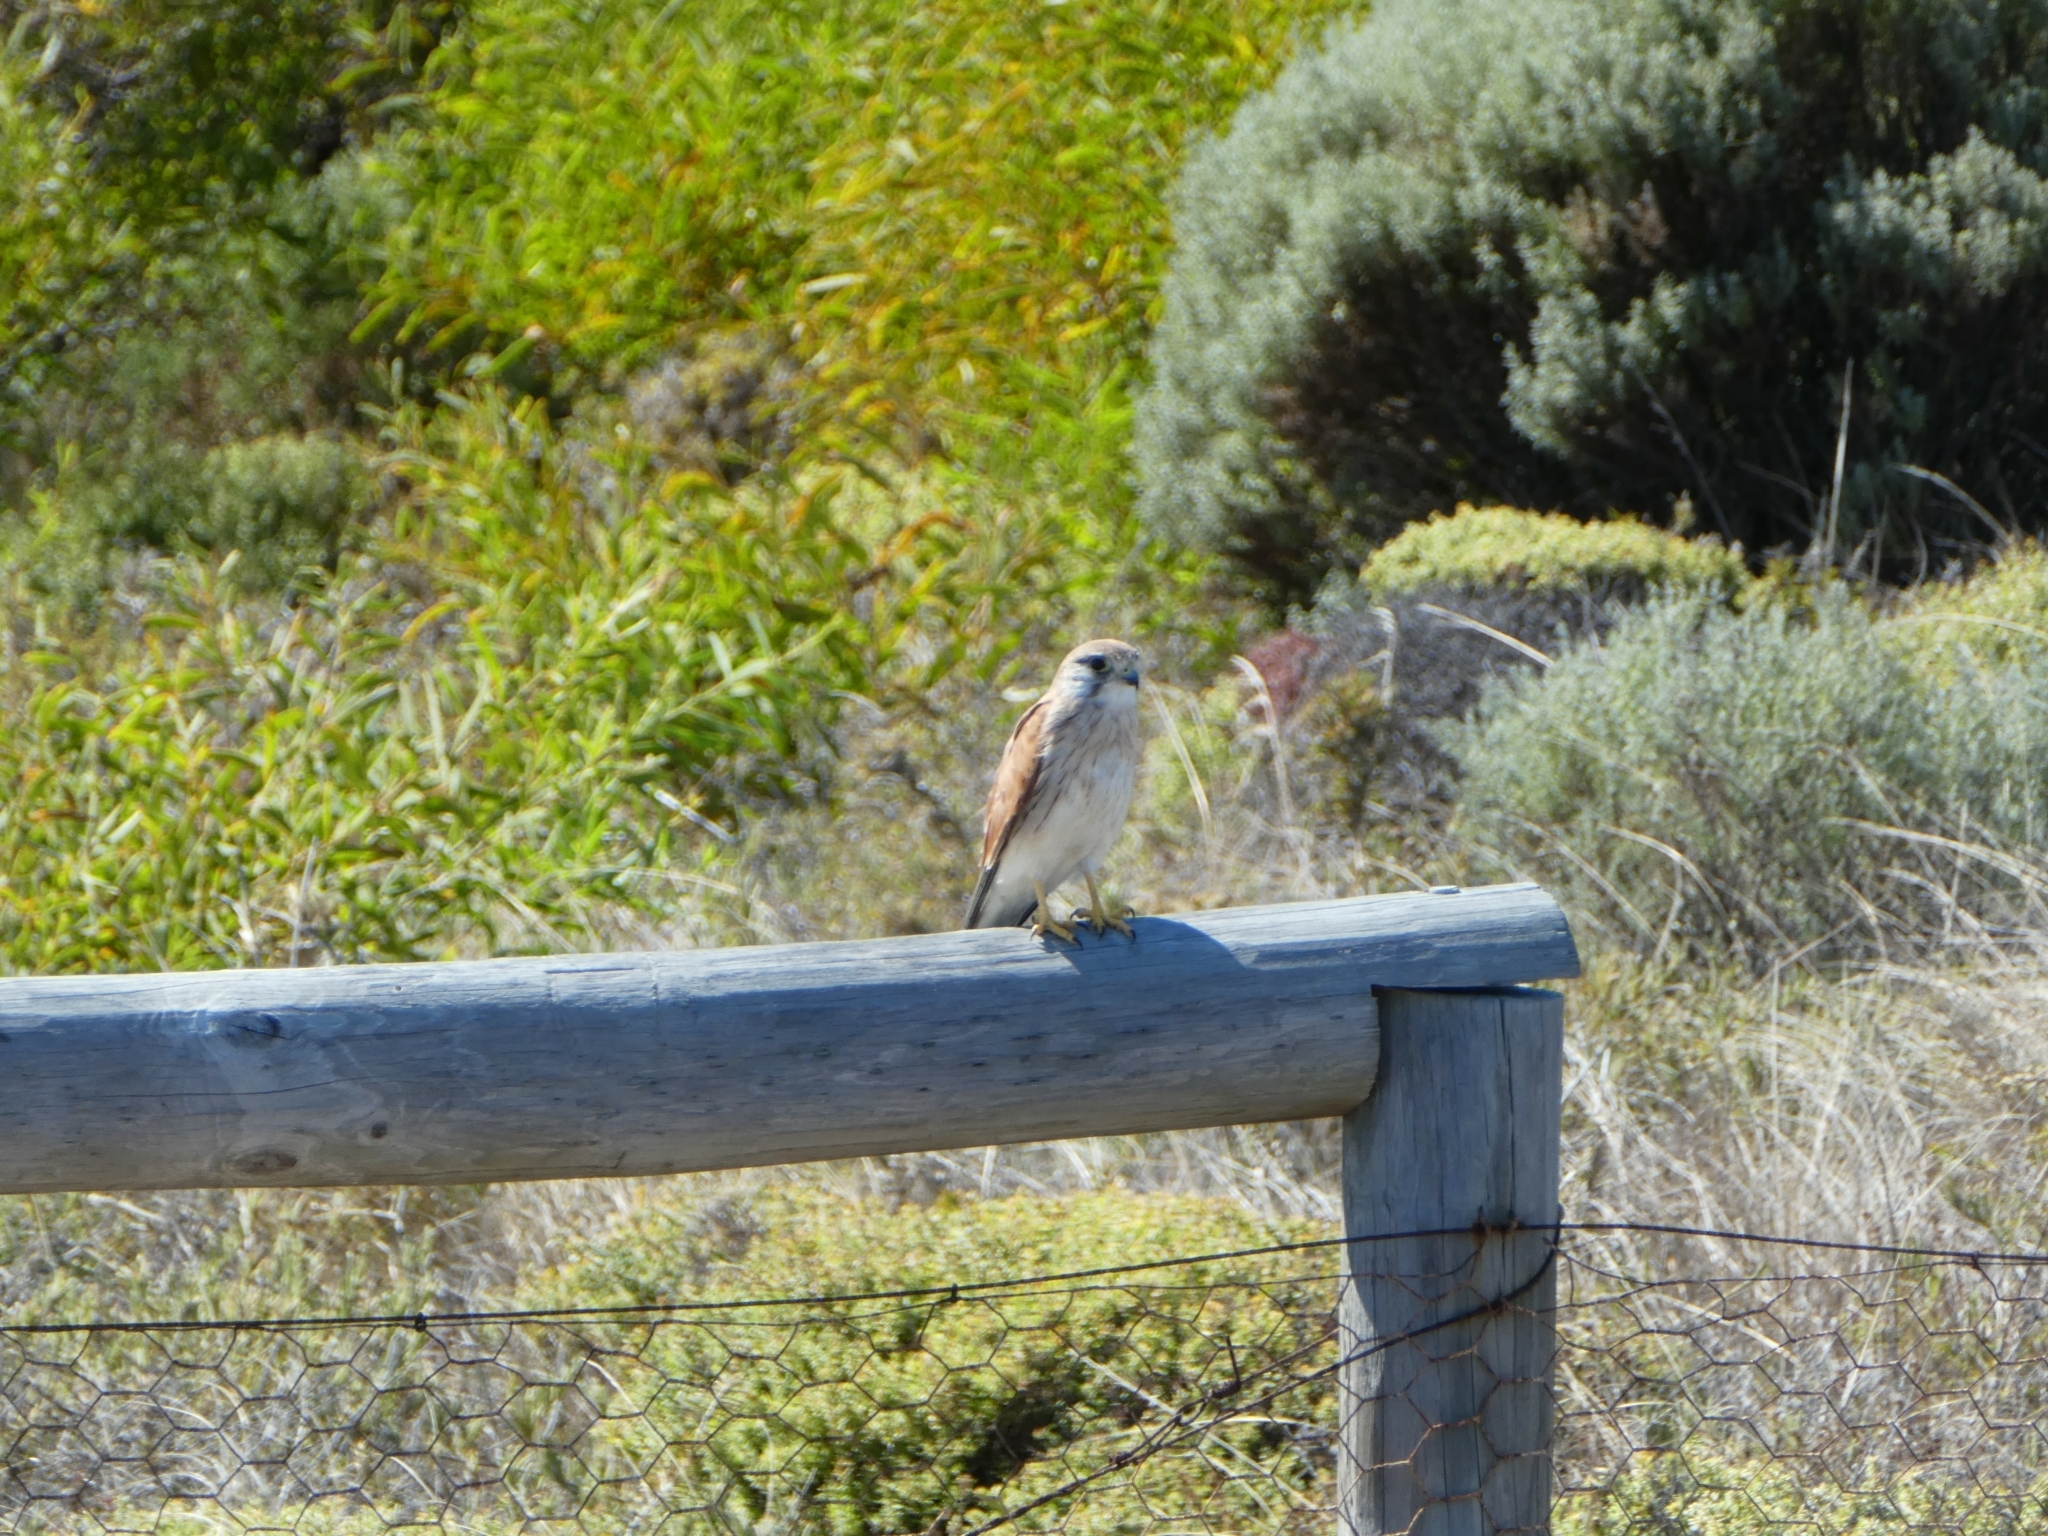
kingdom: Animalia
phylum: Chordata
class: Aves
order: Falconiformes
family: Falconidae
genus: Falco
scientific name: Falco cenchroides
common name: Nankeen kestrel
